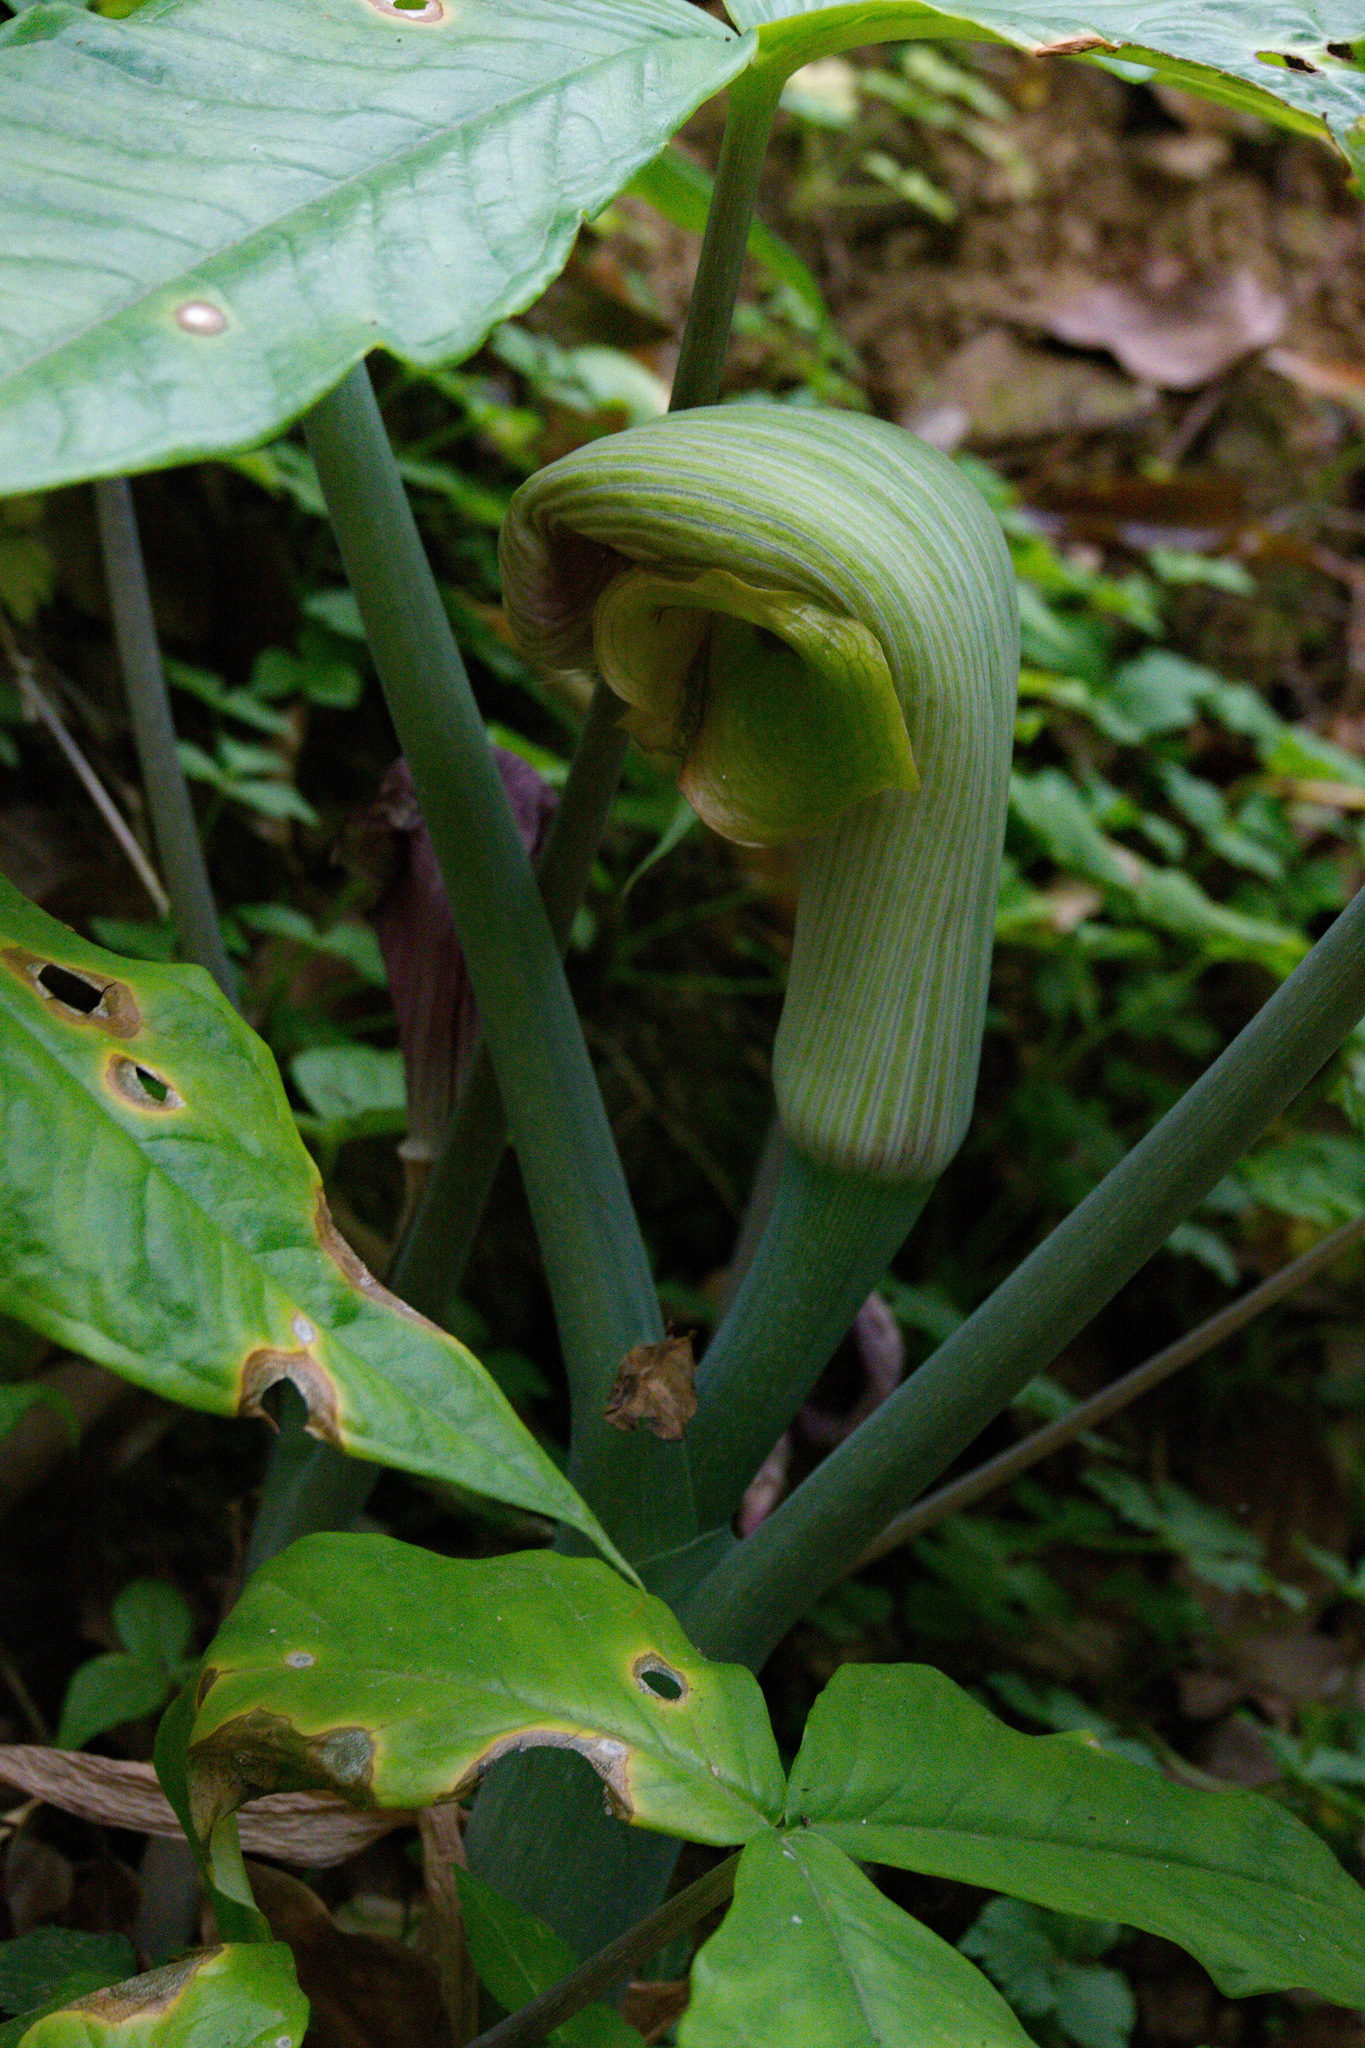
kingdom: Plantae
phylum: Tracheophyta
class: Liliopsida
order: Alismatales
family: Araceae
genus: Arisaema
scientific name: Arisaema ringens
